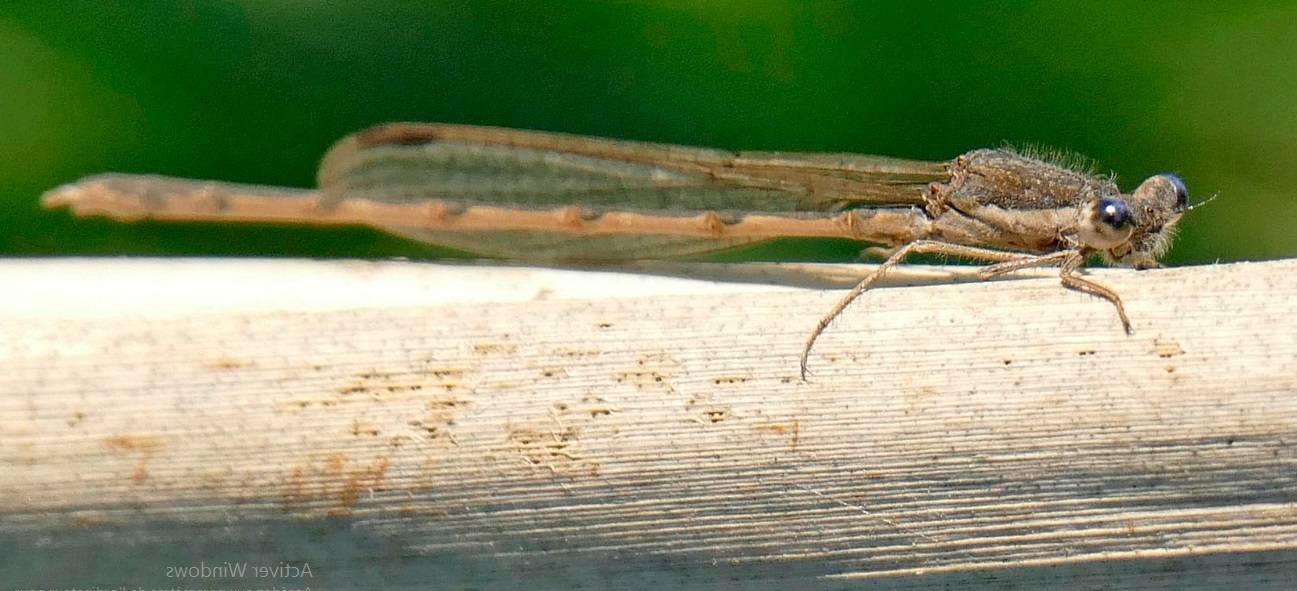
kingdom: Animalia
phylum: Arthropoda
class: Insecta
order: Odonata
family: Lestidae
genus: Sympecma
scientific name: Sympecma fusca
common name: Common winter damsel
